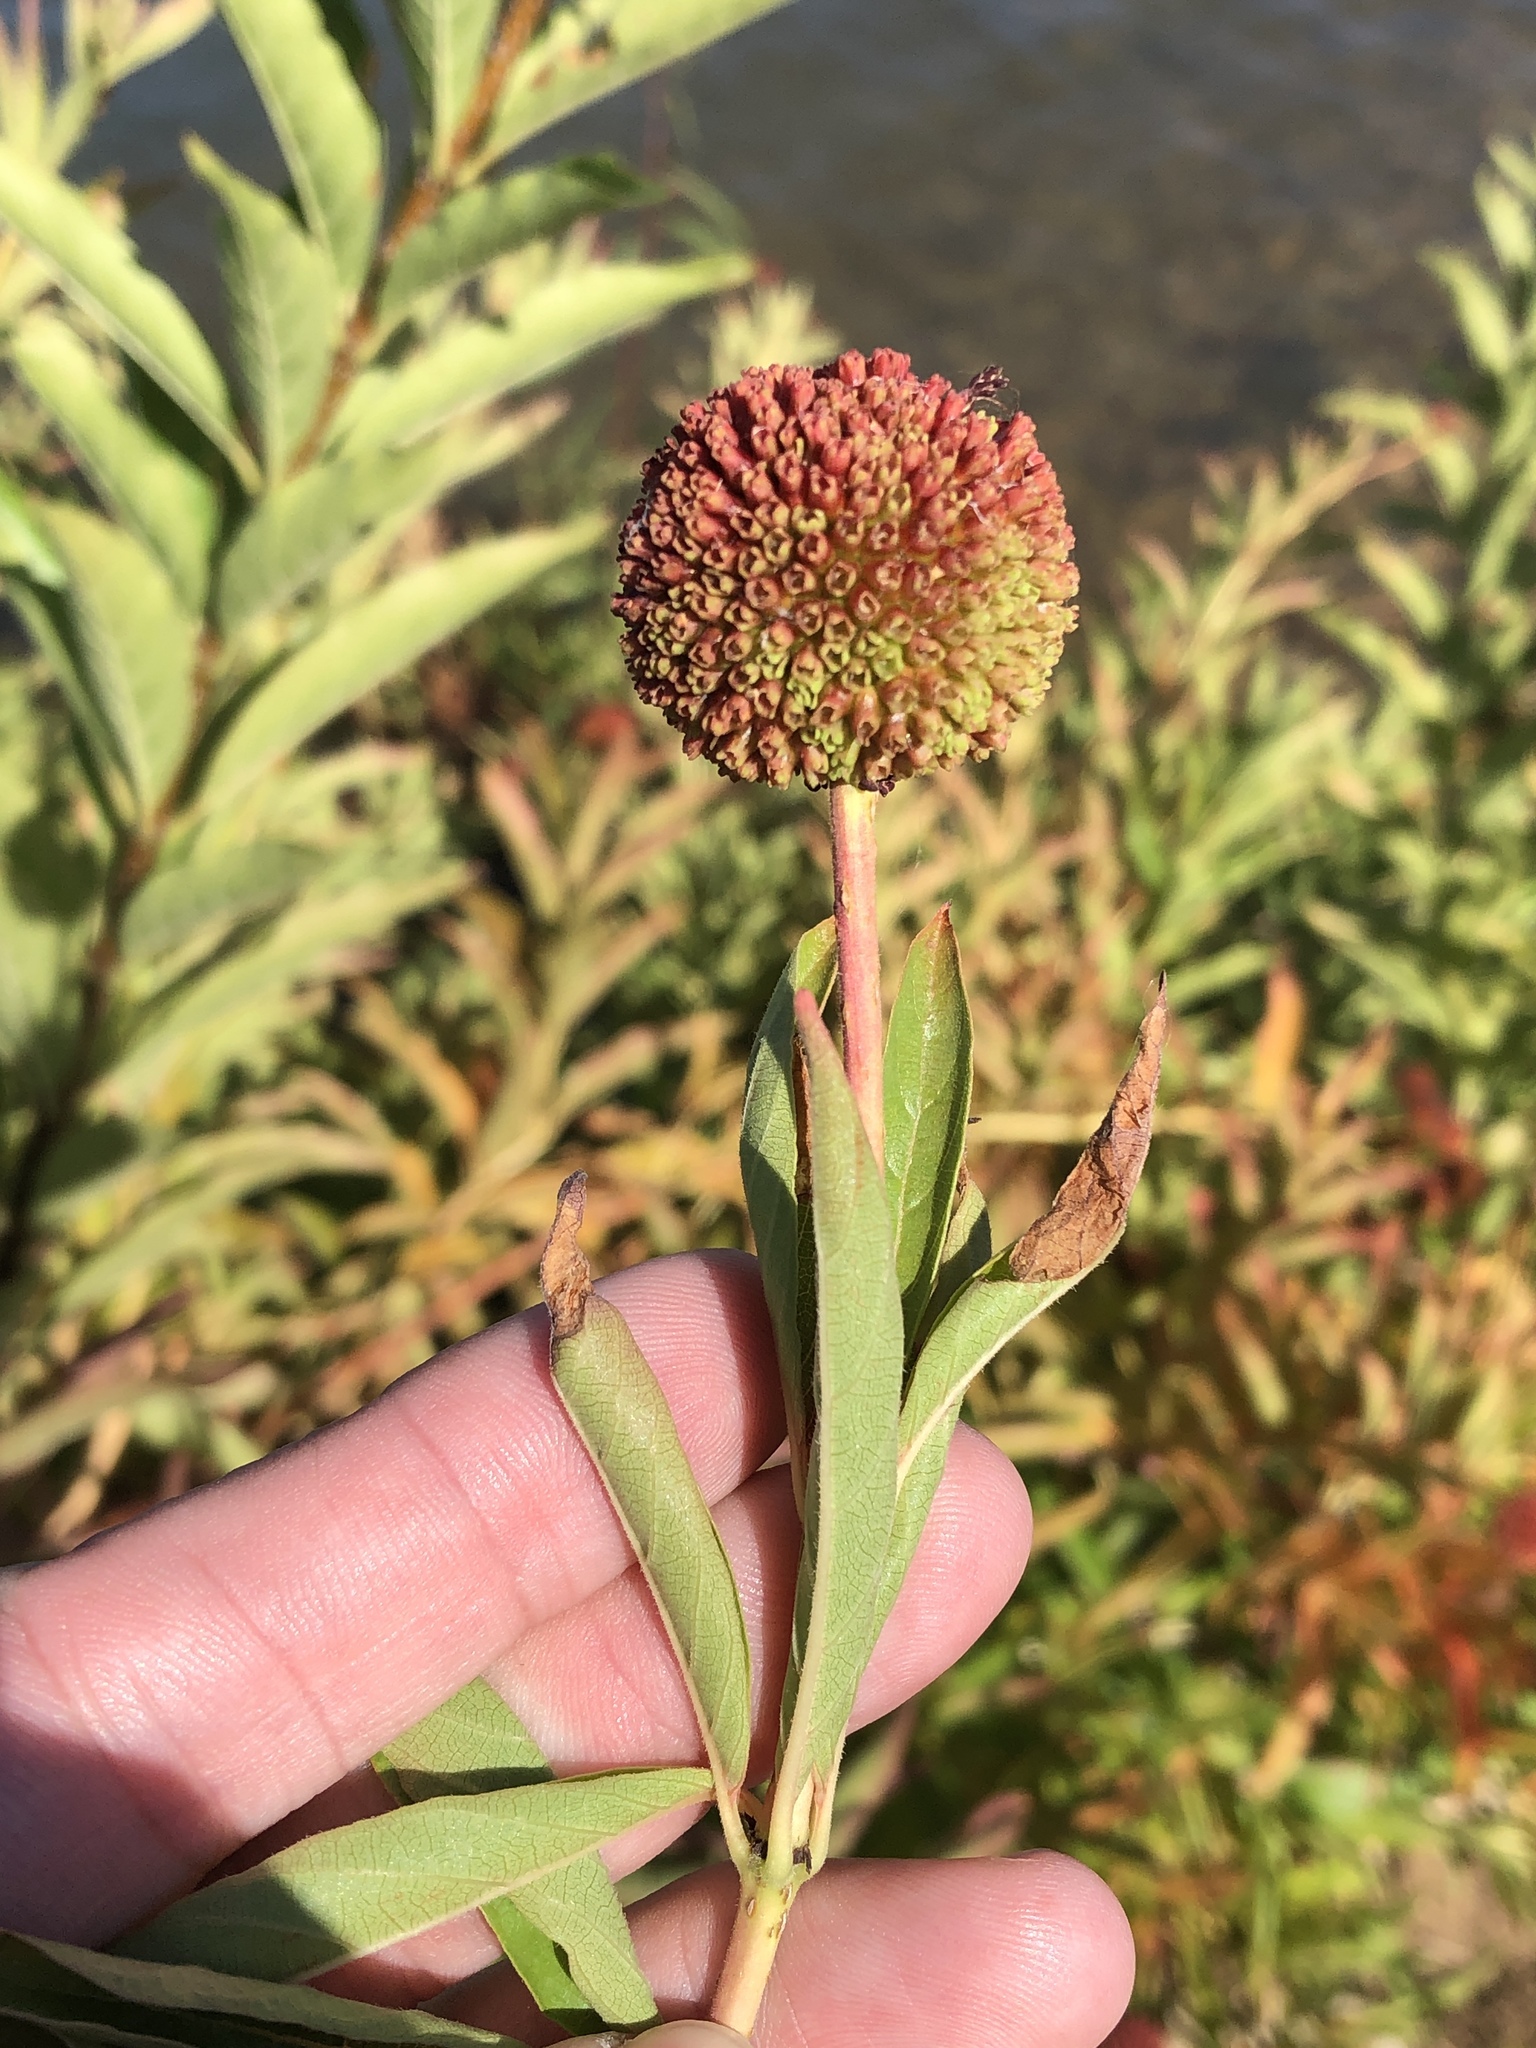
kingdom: Plantae
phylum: Tracheophyta
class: Magnoliopsida
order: Gentianales
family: Rubiaceae
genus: Cephalanthus
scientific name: Cephalanthus occidentalis
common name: Button-willow
